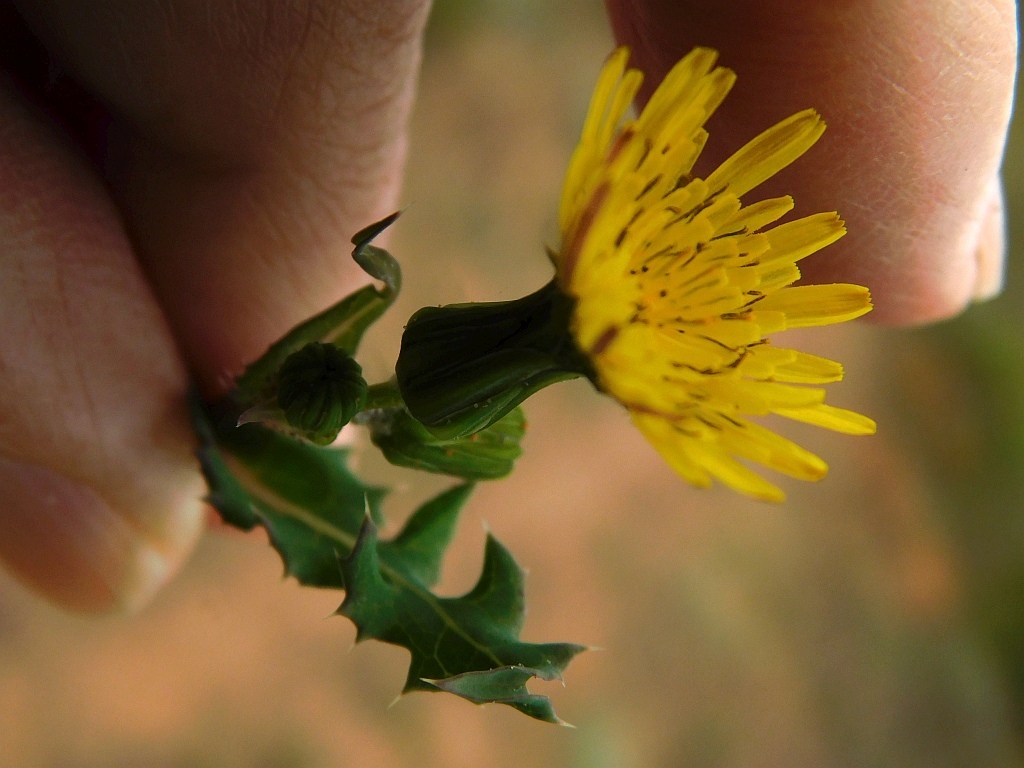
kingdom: Plantae
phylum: Tracheophyta
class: Magnoliopsida
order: Asterales
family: Asteraceae
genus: Sonchus
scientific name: Sonchus oleraceus
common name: Common sowthistle
